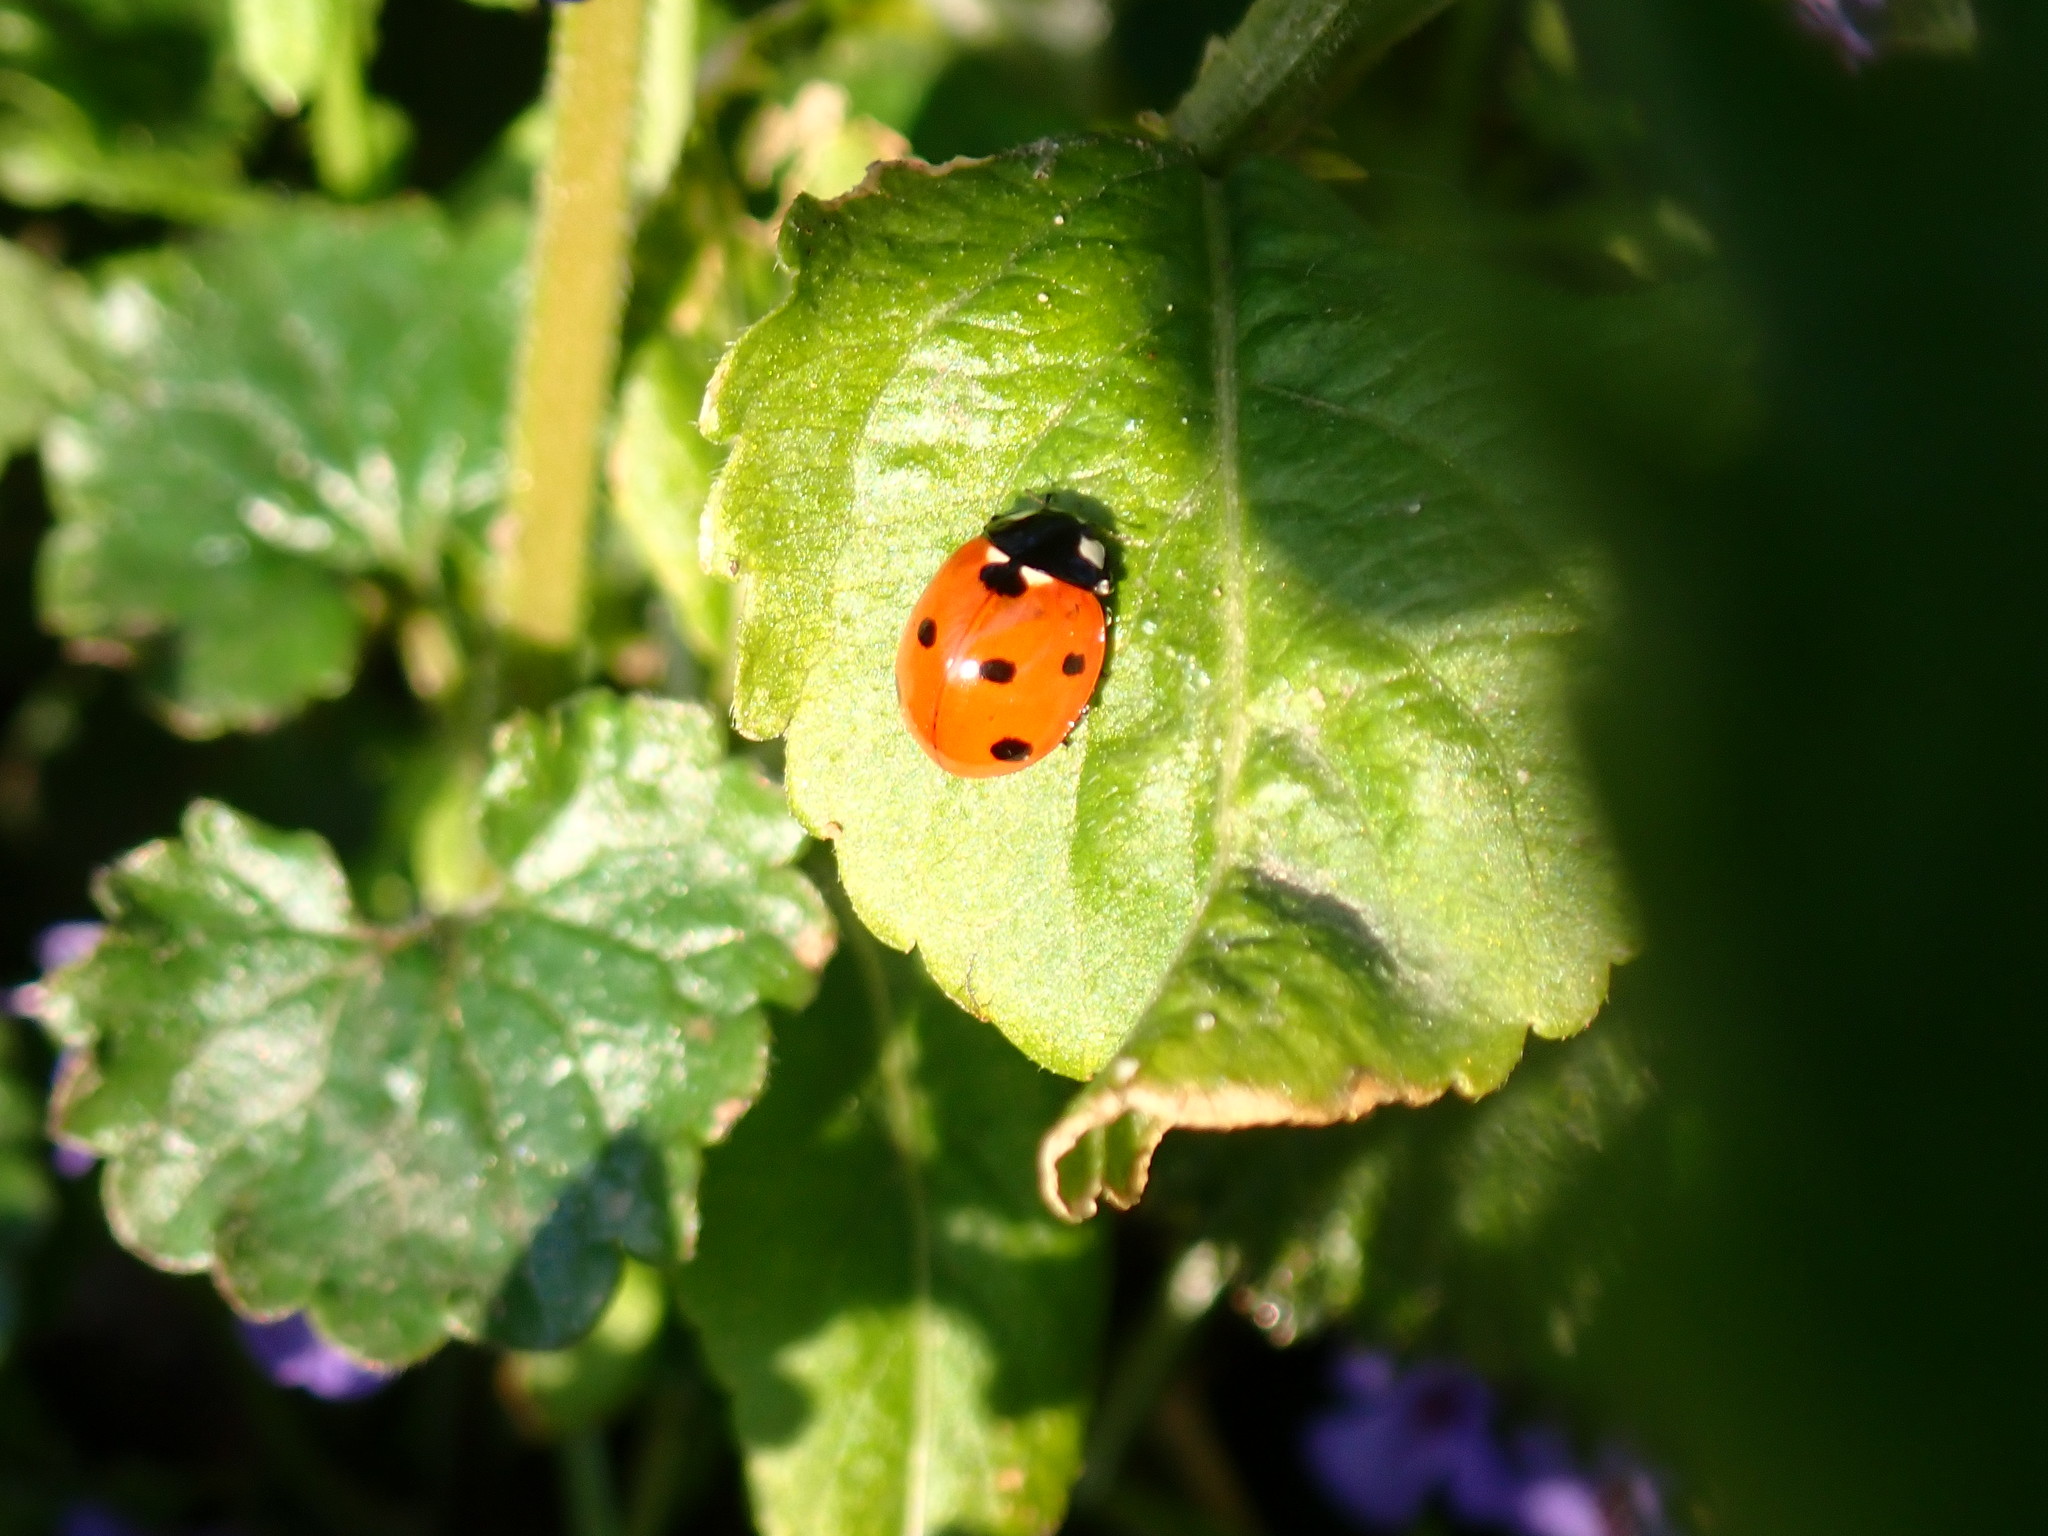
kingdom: Animalia
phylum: Arthropoda
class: Insecta
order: Coleoptera
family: Coccinellidae
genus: Coccinella
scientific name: Coccinella septempunctata
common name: Sevenspotted lady beetle
